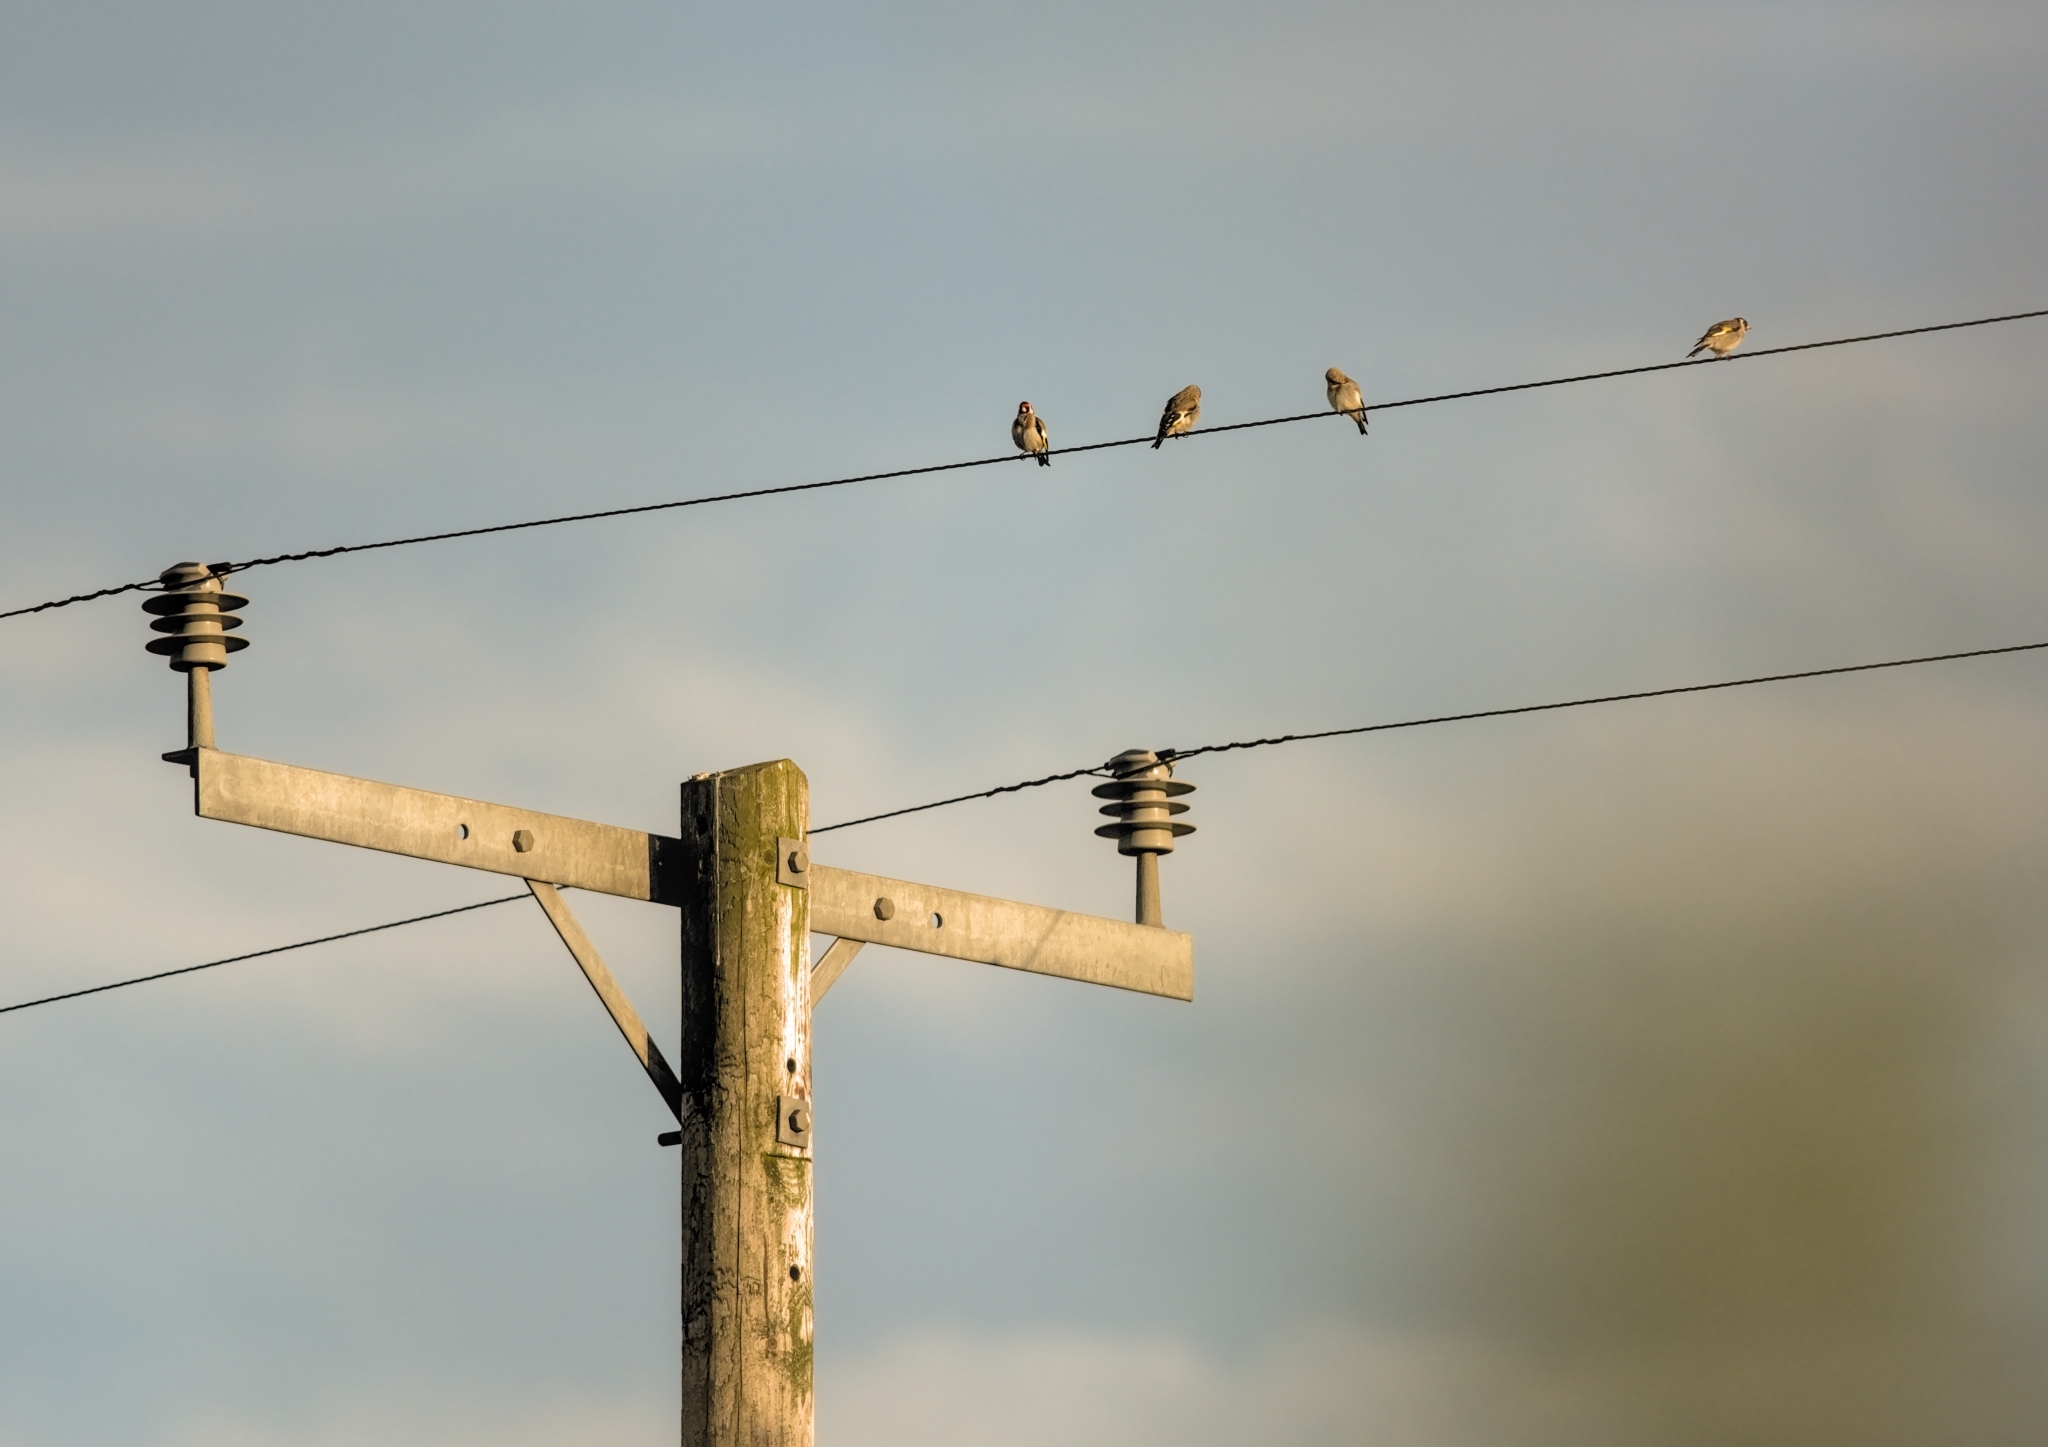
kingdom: Animalia
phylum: Chordata
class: Aves
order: Passeriformes
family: Fringillidae
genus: Carduelis
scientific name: Carduelis carduelis
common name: European goldfinch
